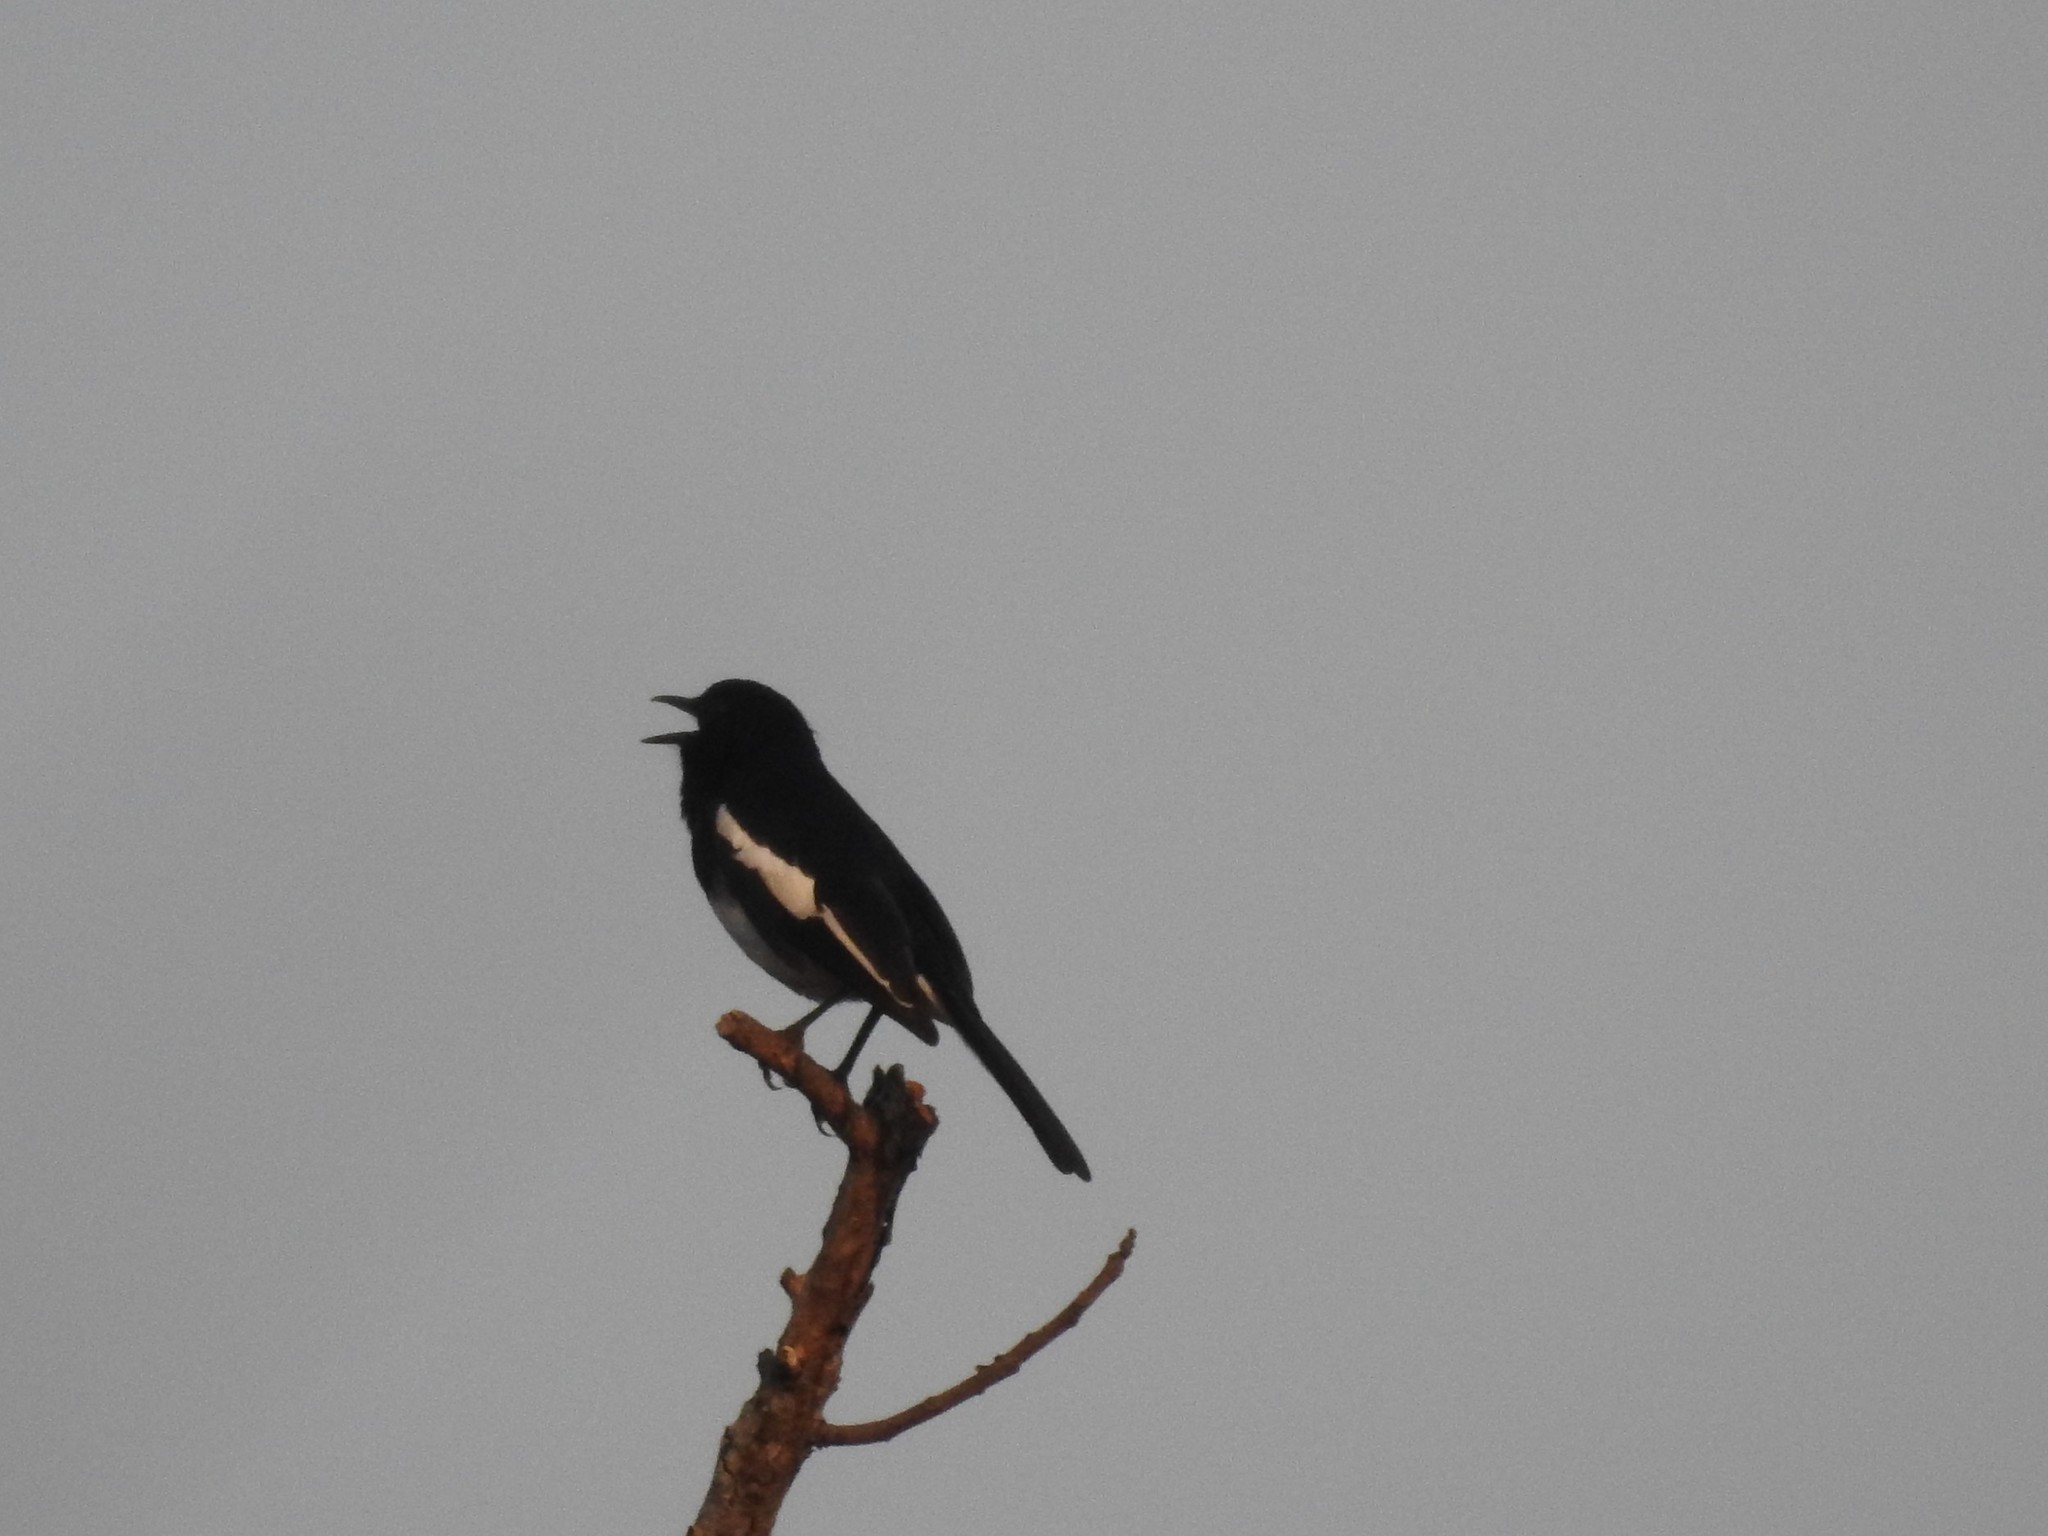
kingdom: Animalia
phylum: Chordata
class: Aves
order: Passeriformes
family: Muscicapidae
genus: Copsychus
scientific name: Copsychus saularis
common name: Oriental magpie-robin
